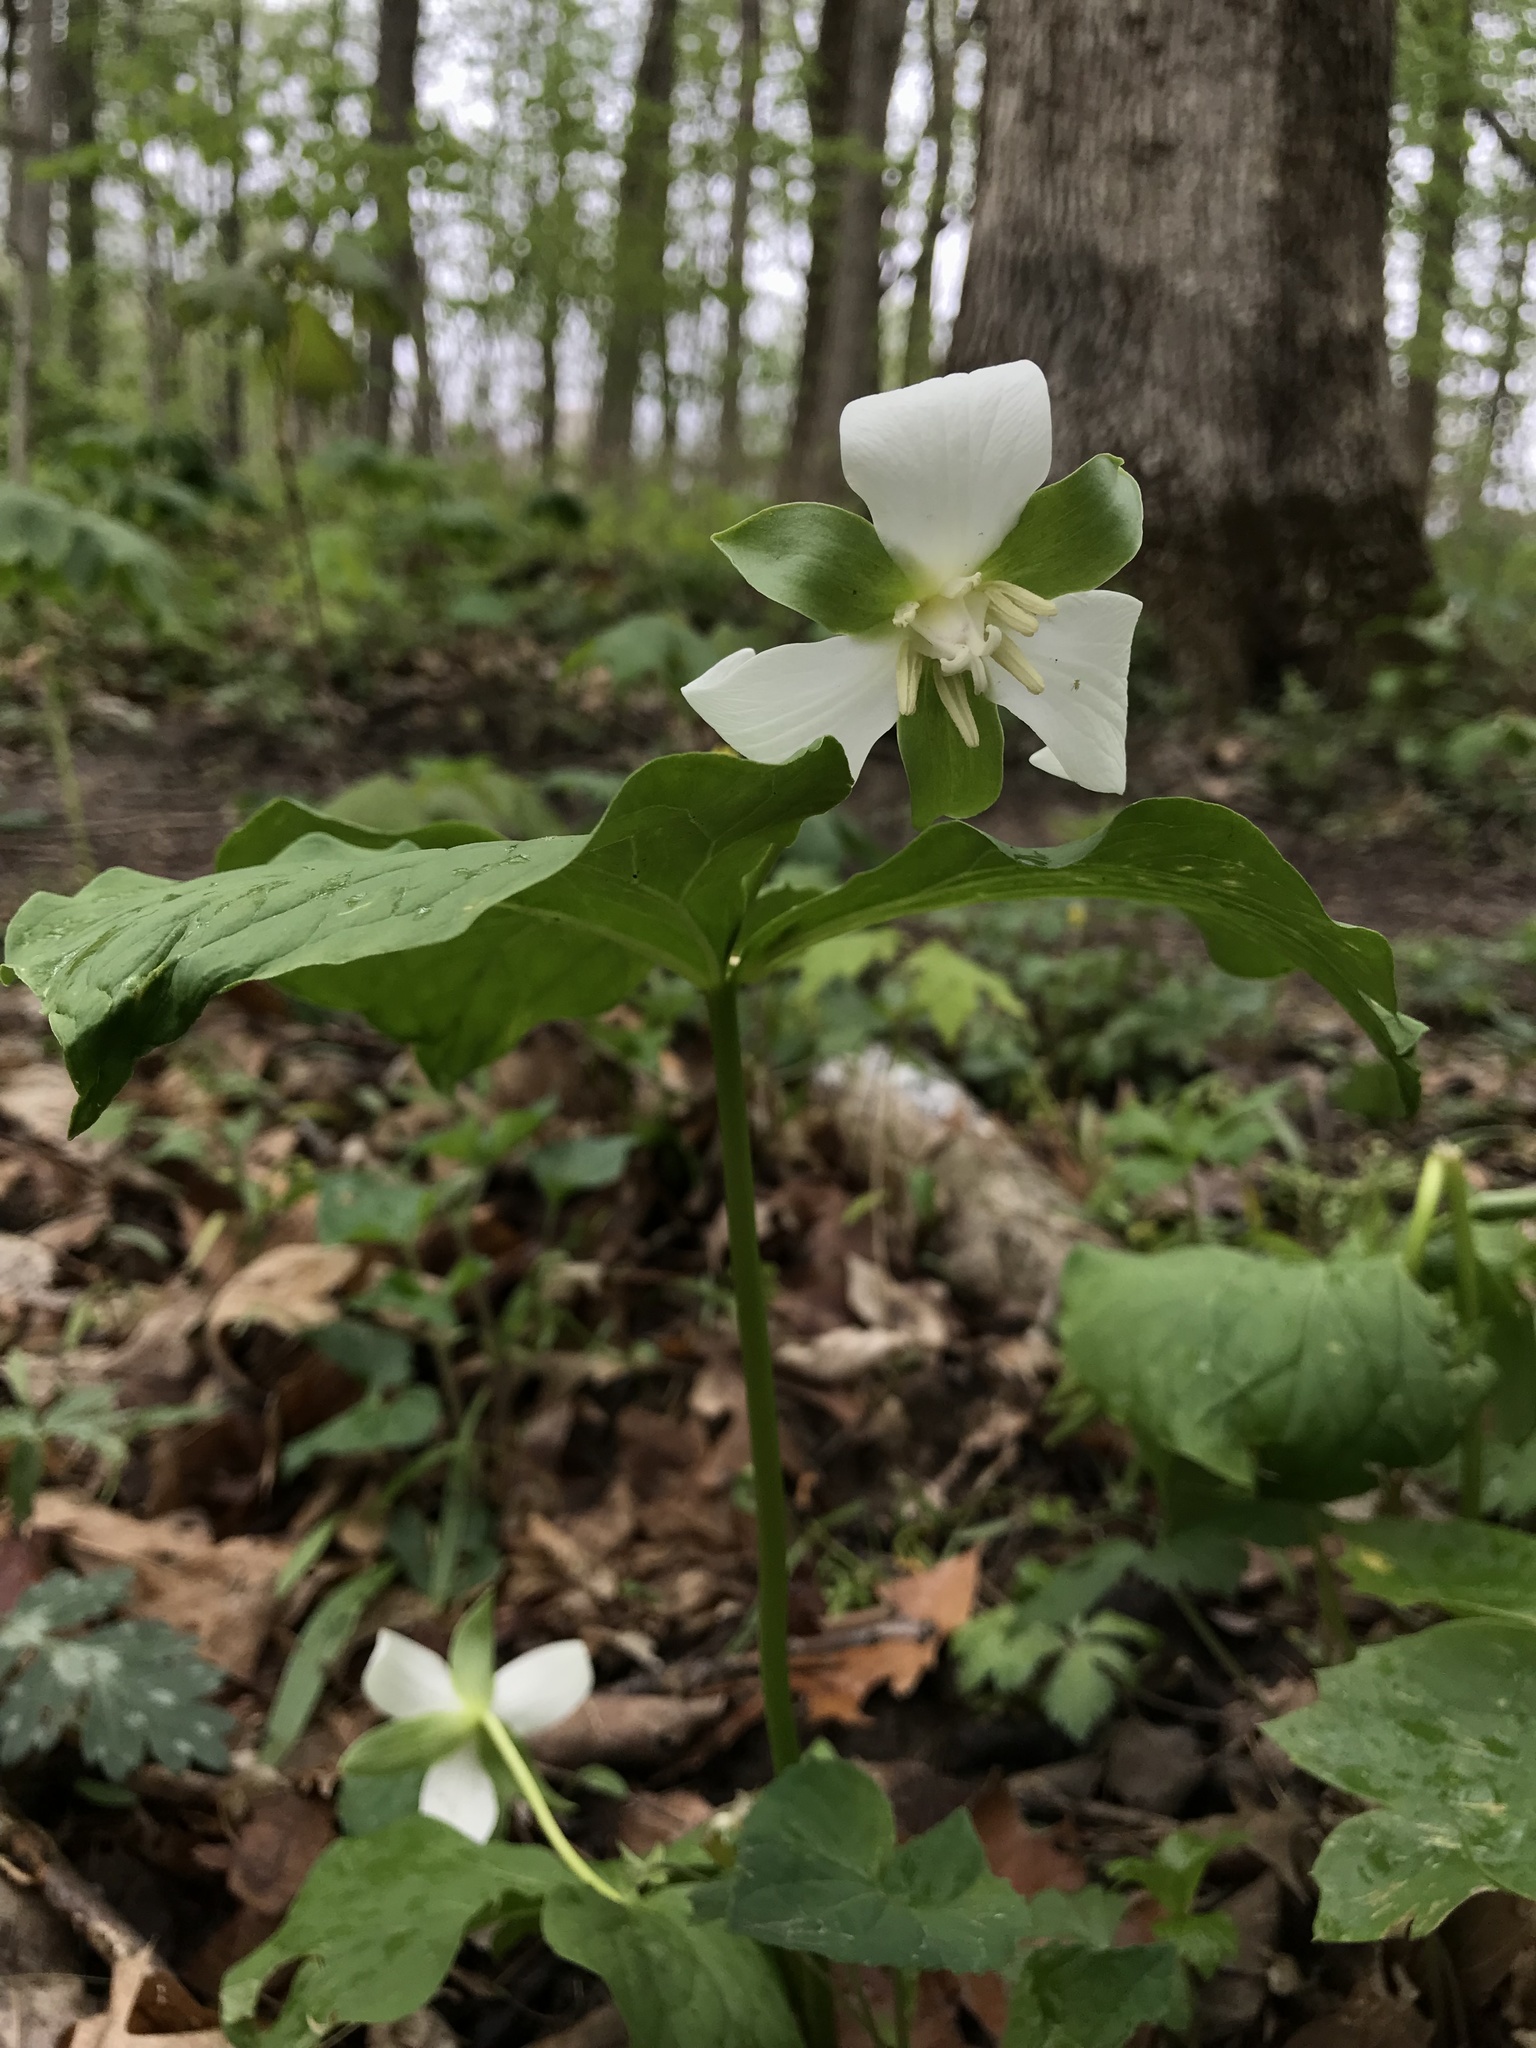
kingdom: Plantae
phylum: Tracheophyta
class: Liliopsida
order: Liliales
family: Melanthiaceae
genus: Trillium
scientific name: Trillium flexipes
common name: Drooping trillium
